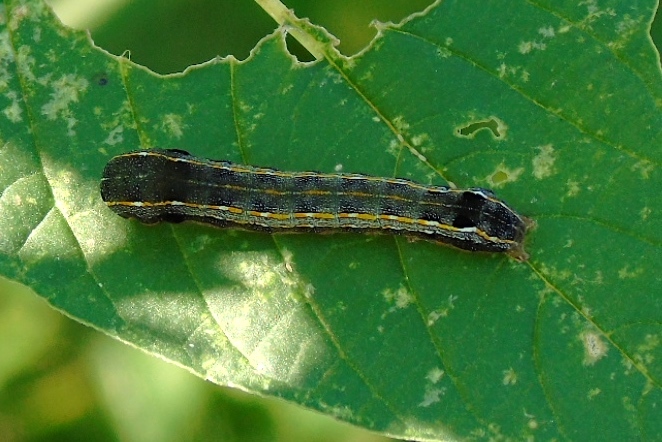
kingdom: Animalia
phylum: Arthropoda
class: Insecta
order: Lepidoptera
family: Noctuidae
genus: Spodoptera
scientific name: Spodoptera
